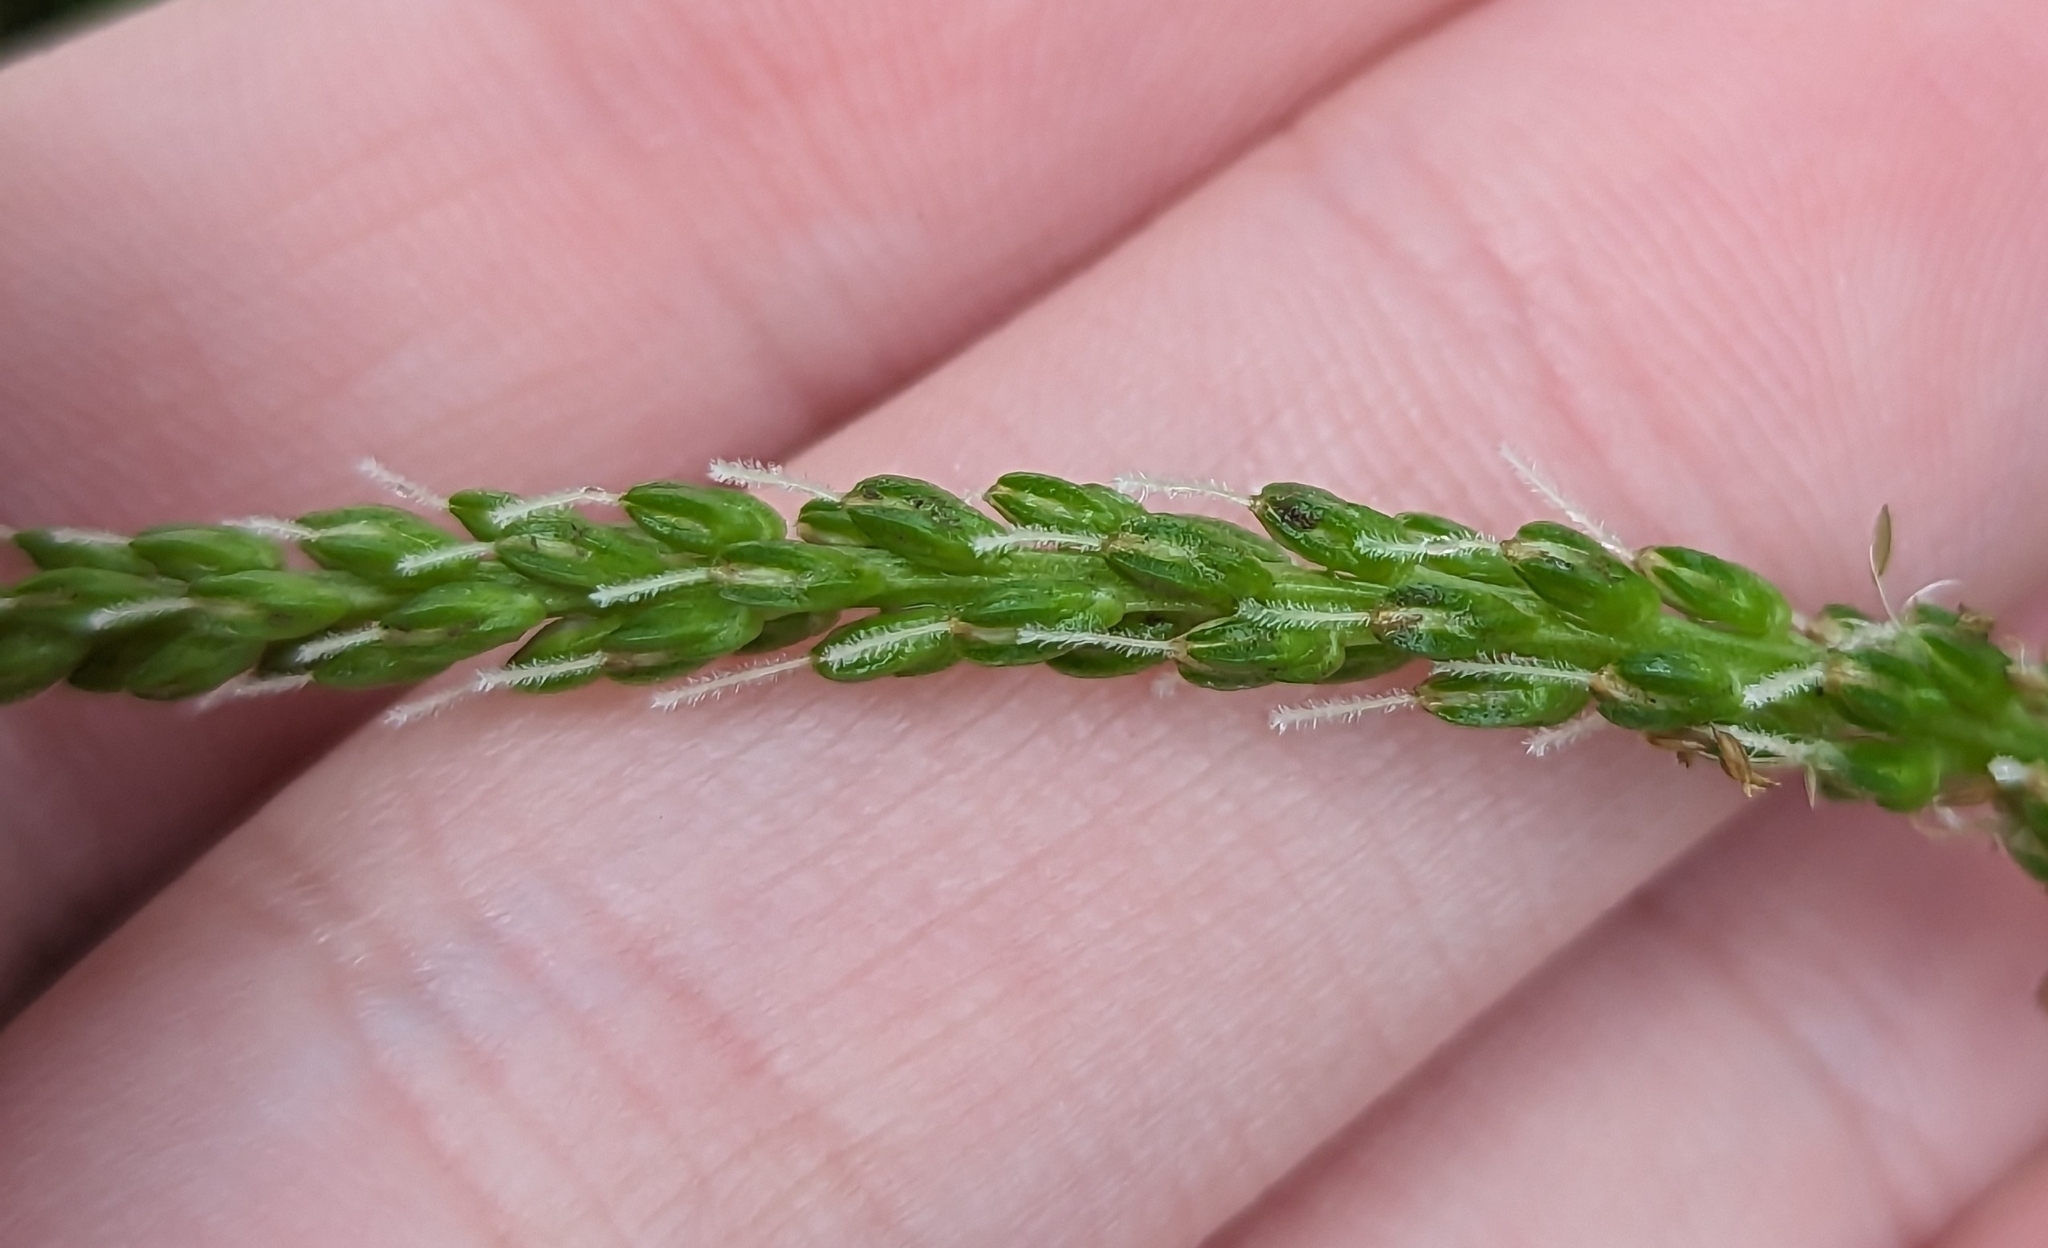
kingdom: Plantae
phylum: Tracheophyta
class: Magnoliopsida
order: Lamiales
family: Plantaginaceae
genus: Plantago
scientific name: Plantago rugelii
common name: American plantain
